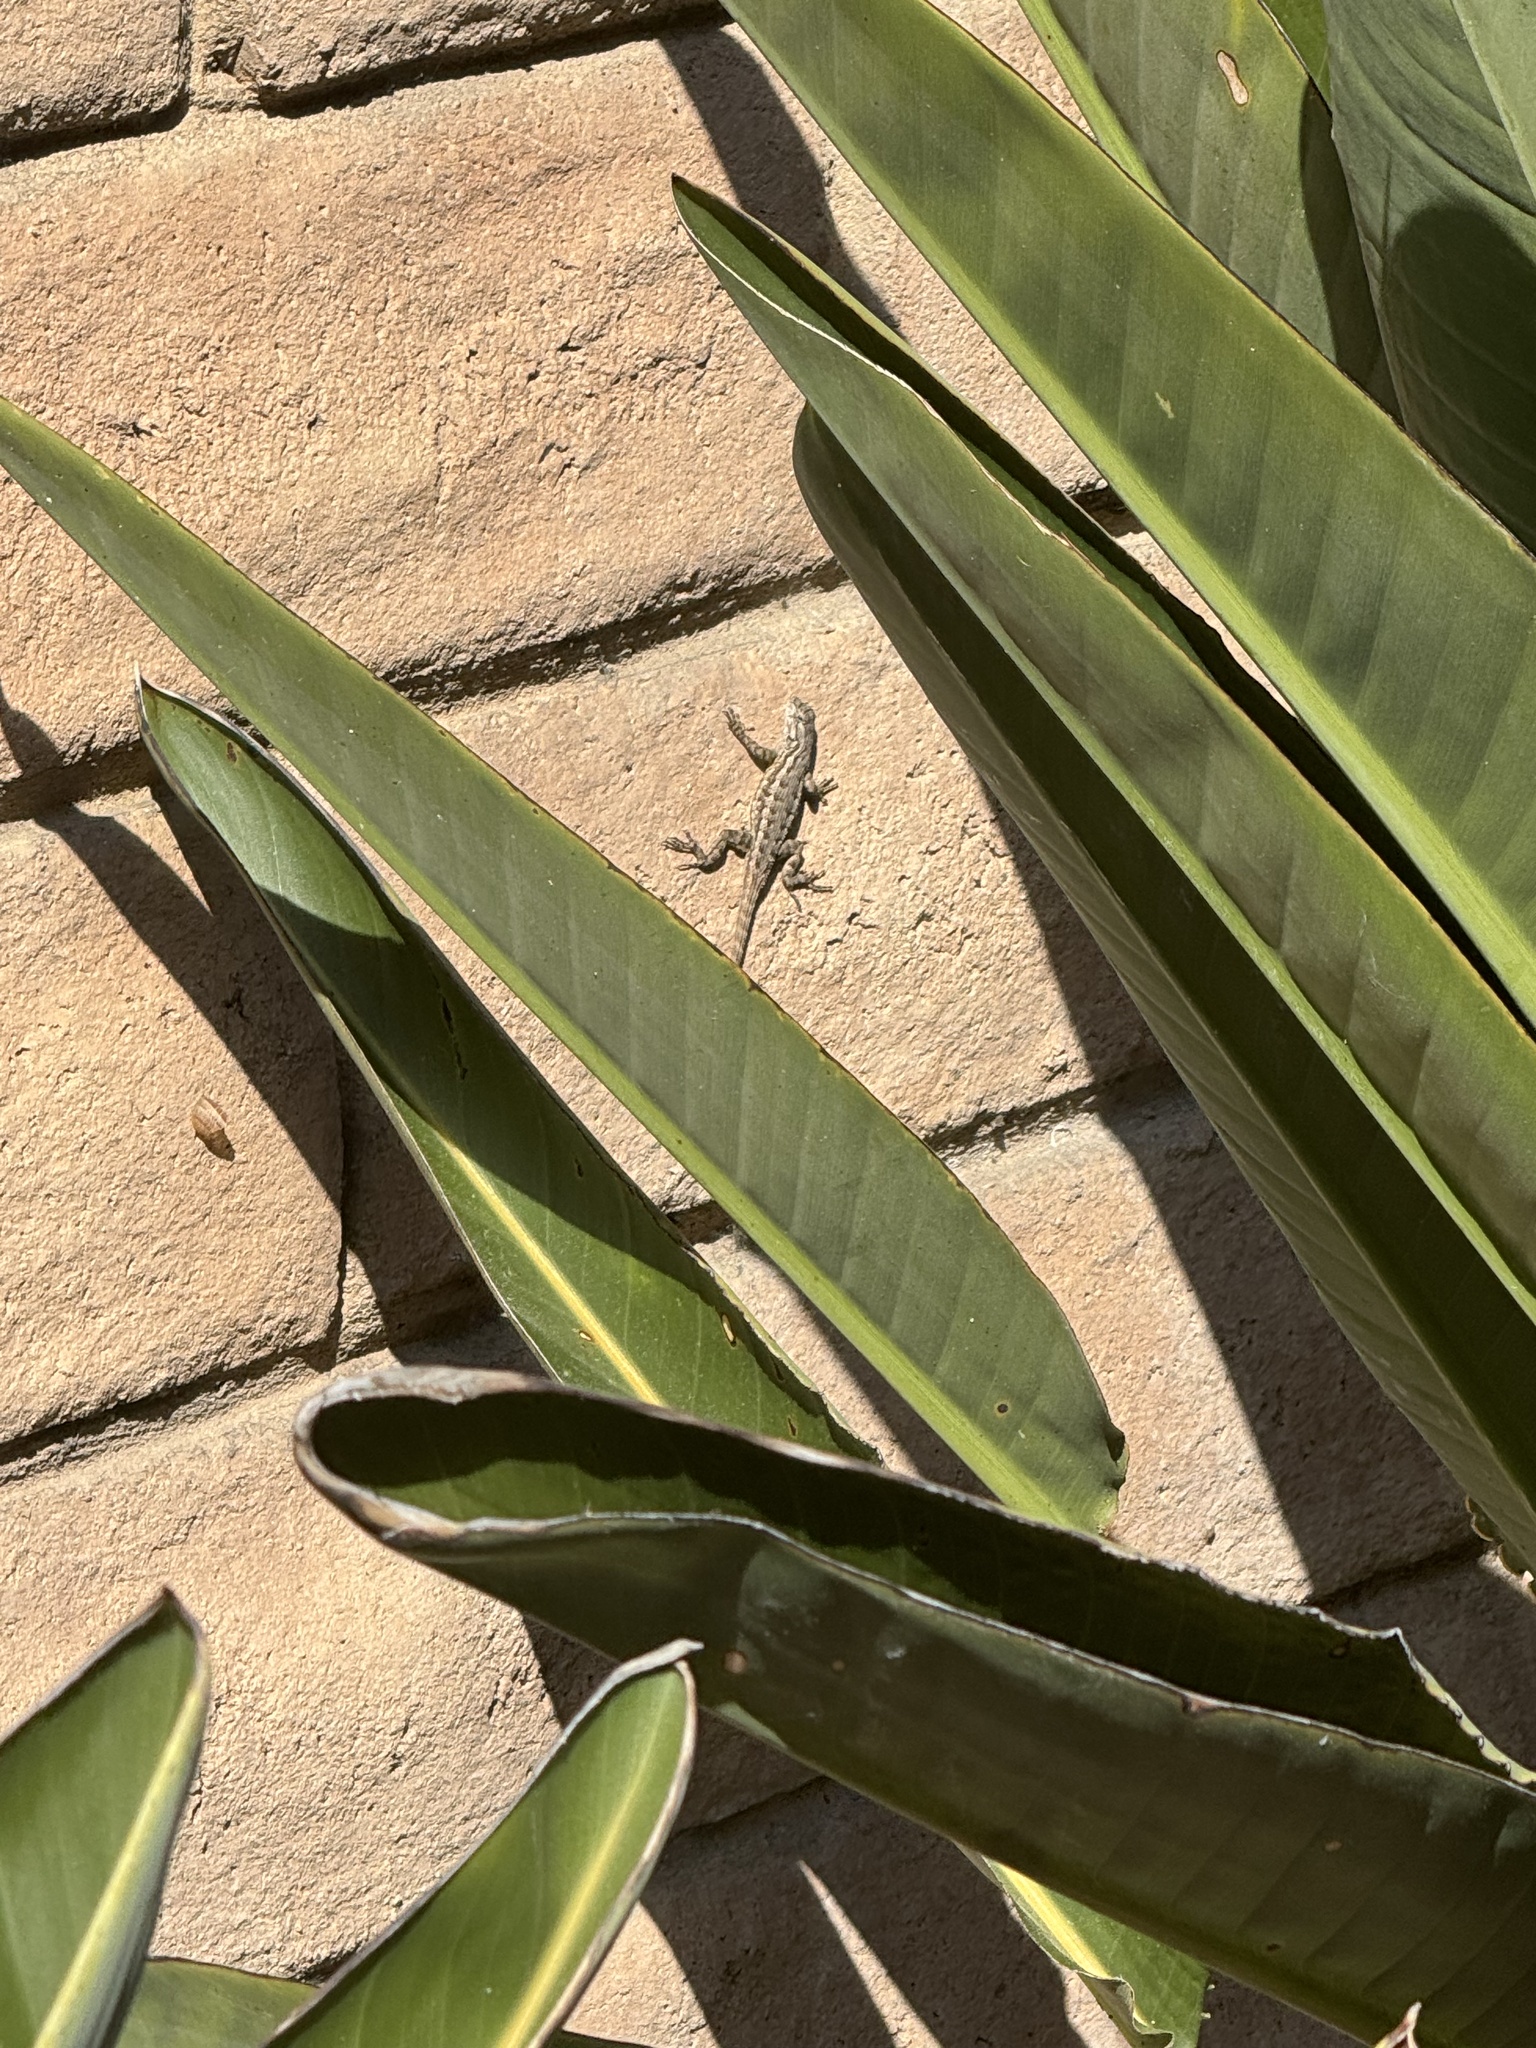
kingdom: Animalia
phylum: Chordata
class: Squamata
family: Phrynosomatidae
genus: Sceloporus
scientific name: Sceloporus occidentalis
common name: Western fence lizard
